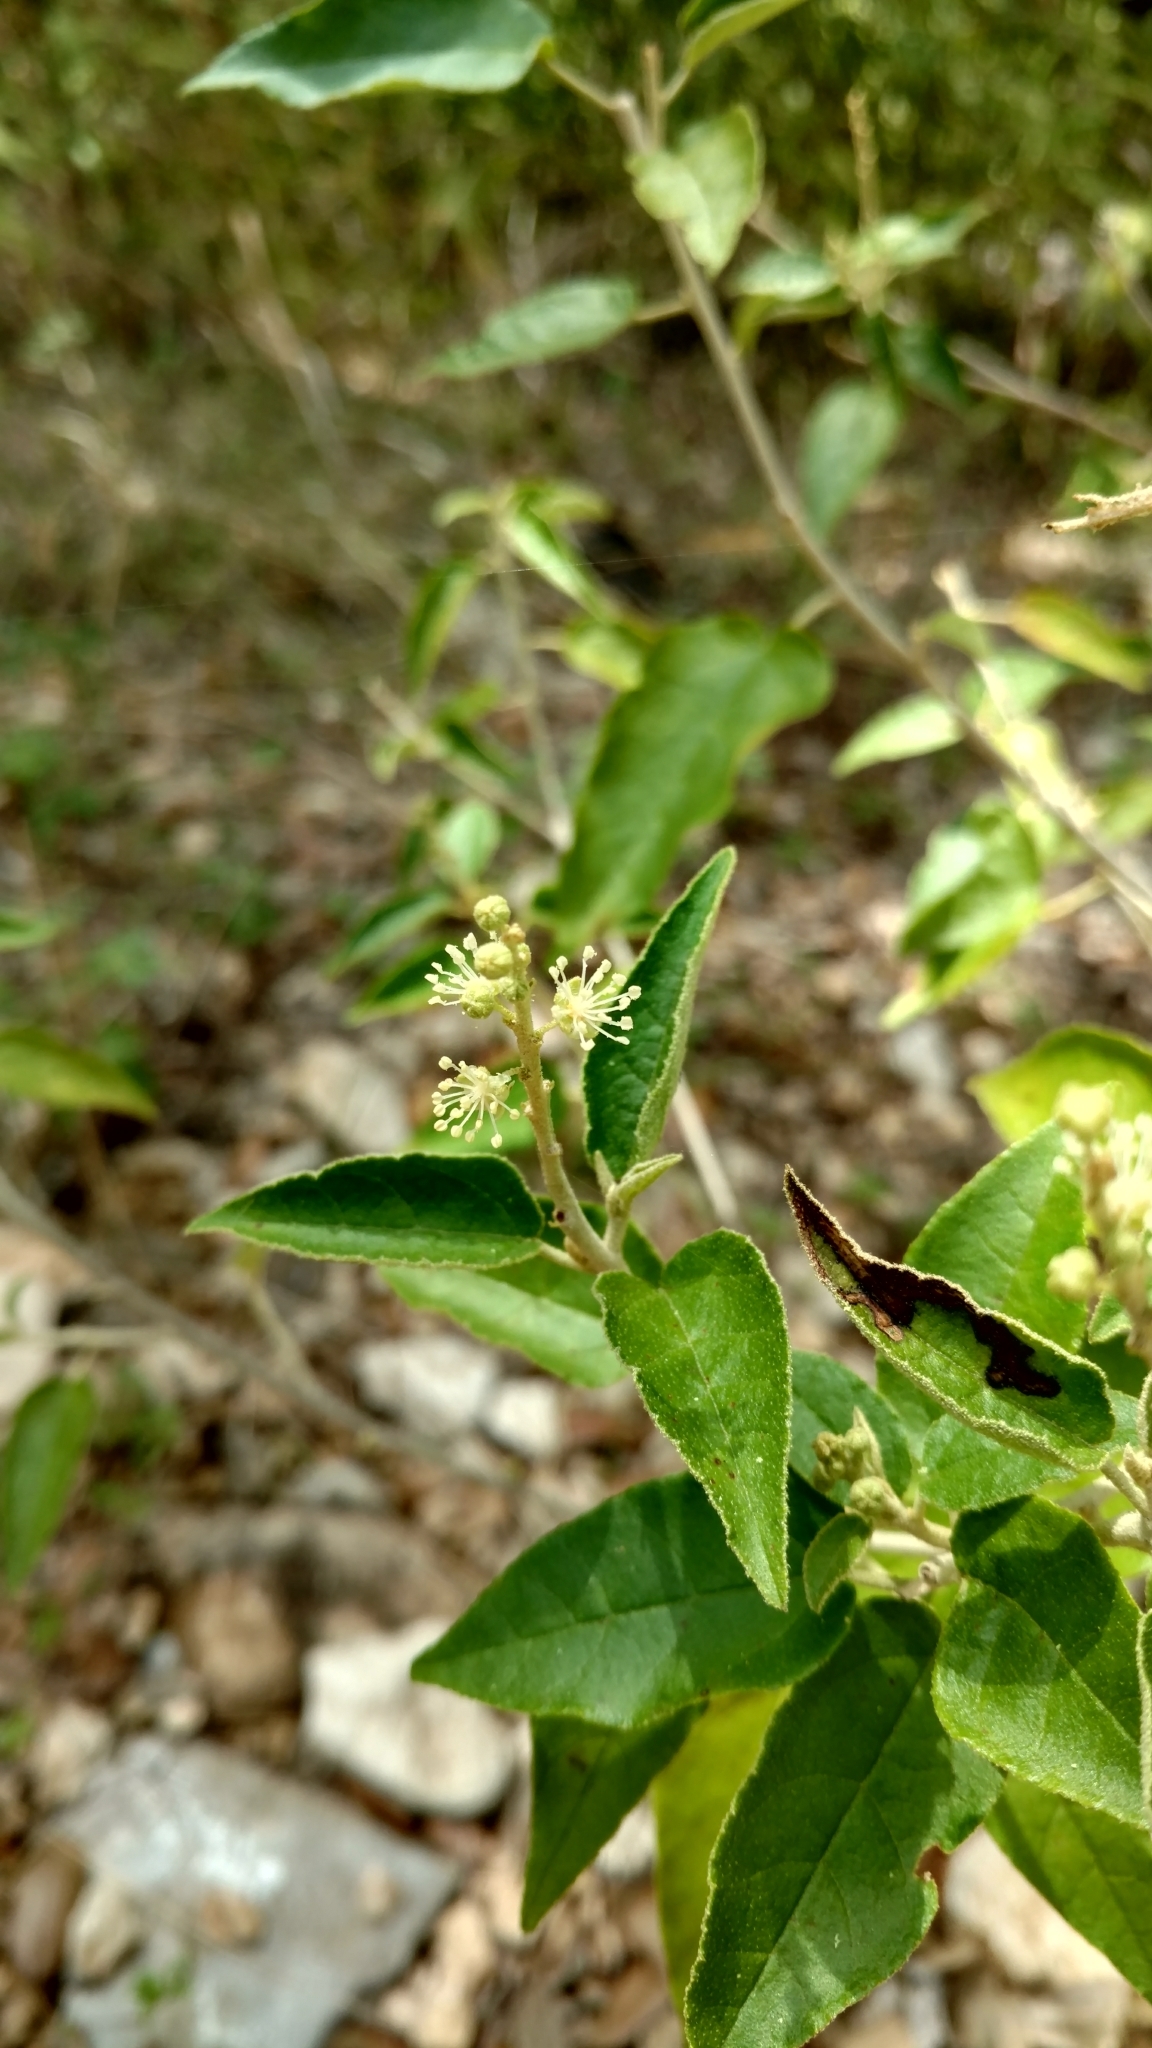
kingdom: Plantae
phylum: Tracheophyta
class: Magnoliopsida
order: Malpighiales
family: Euphorbiaceae
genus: Croton
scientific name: Croton fruticulosus
